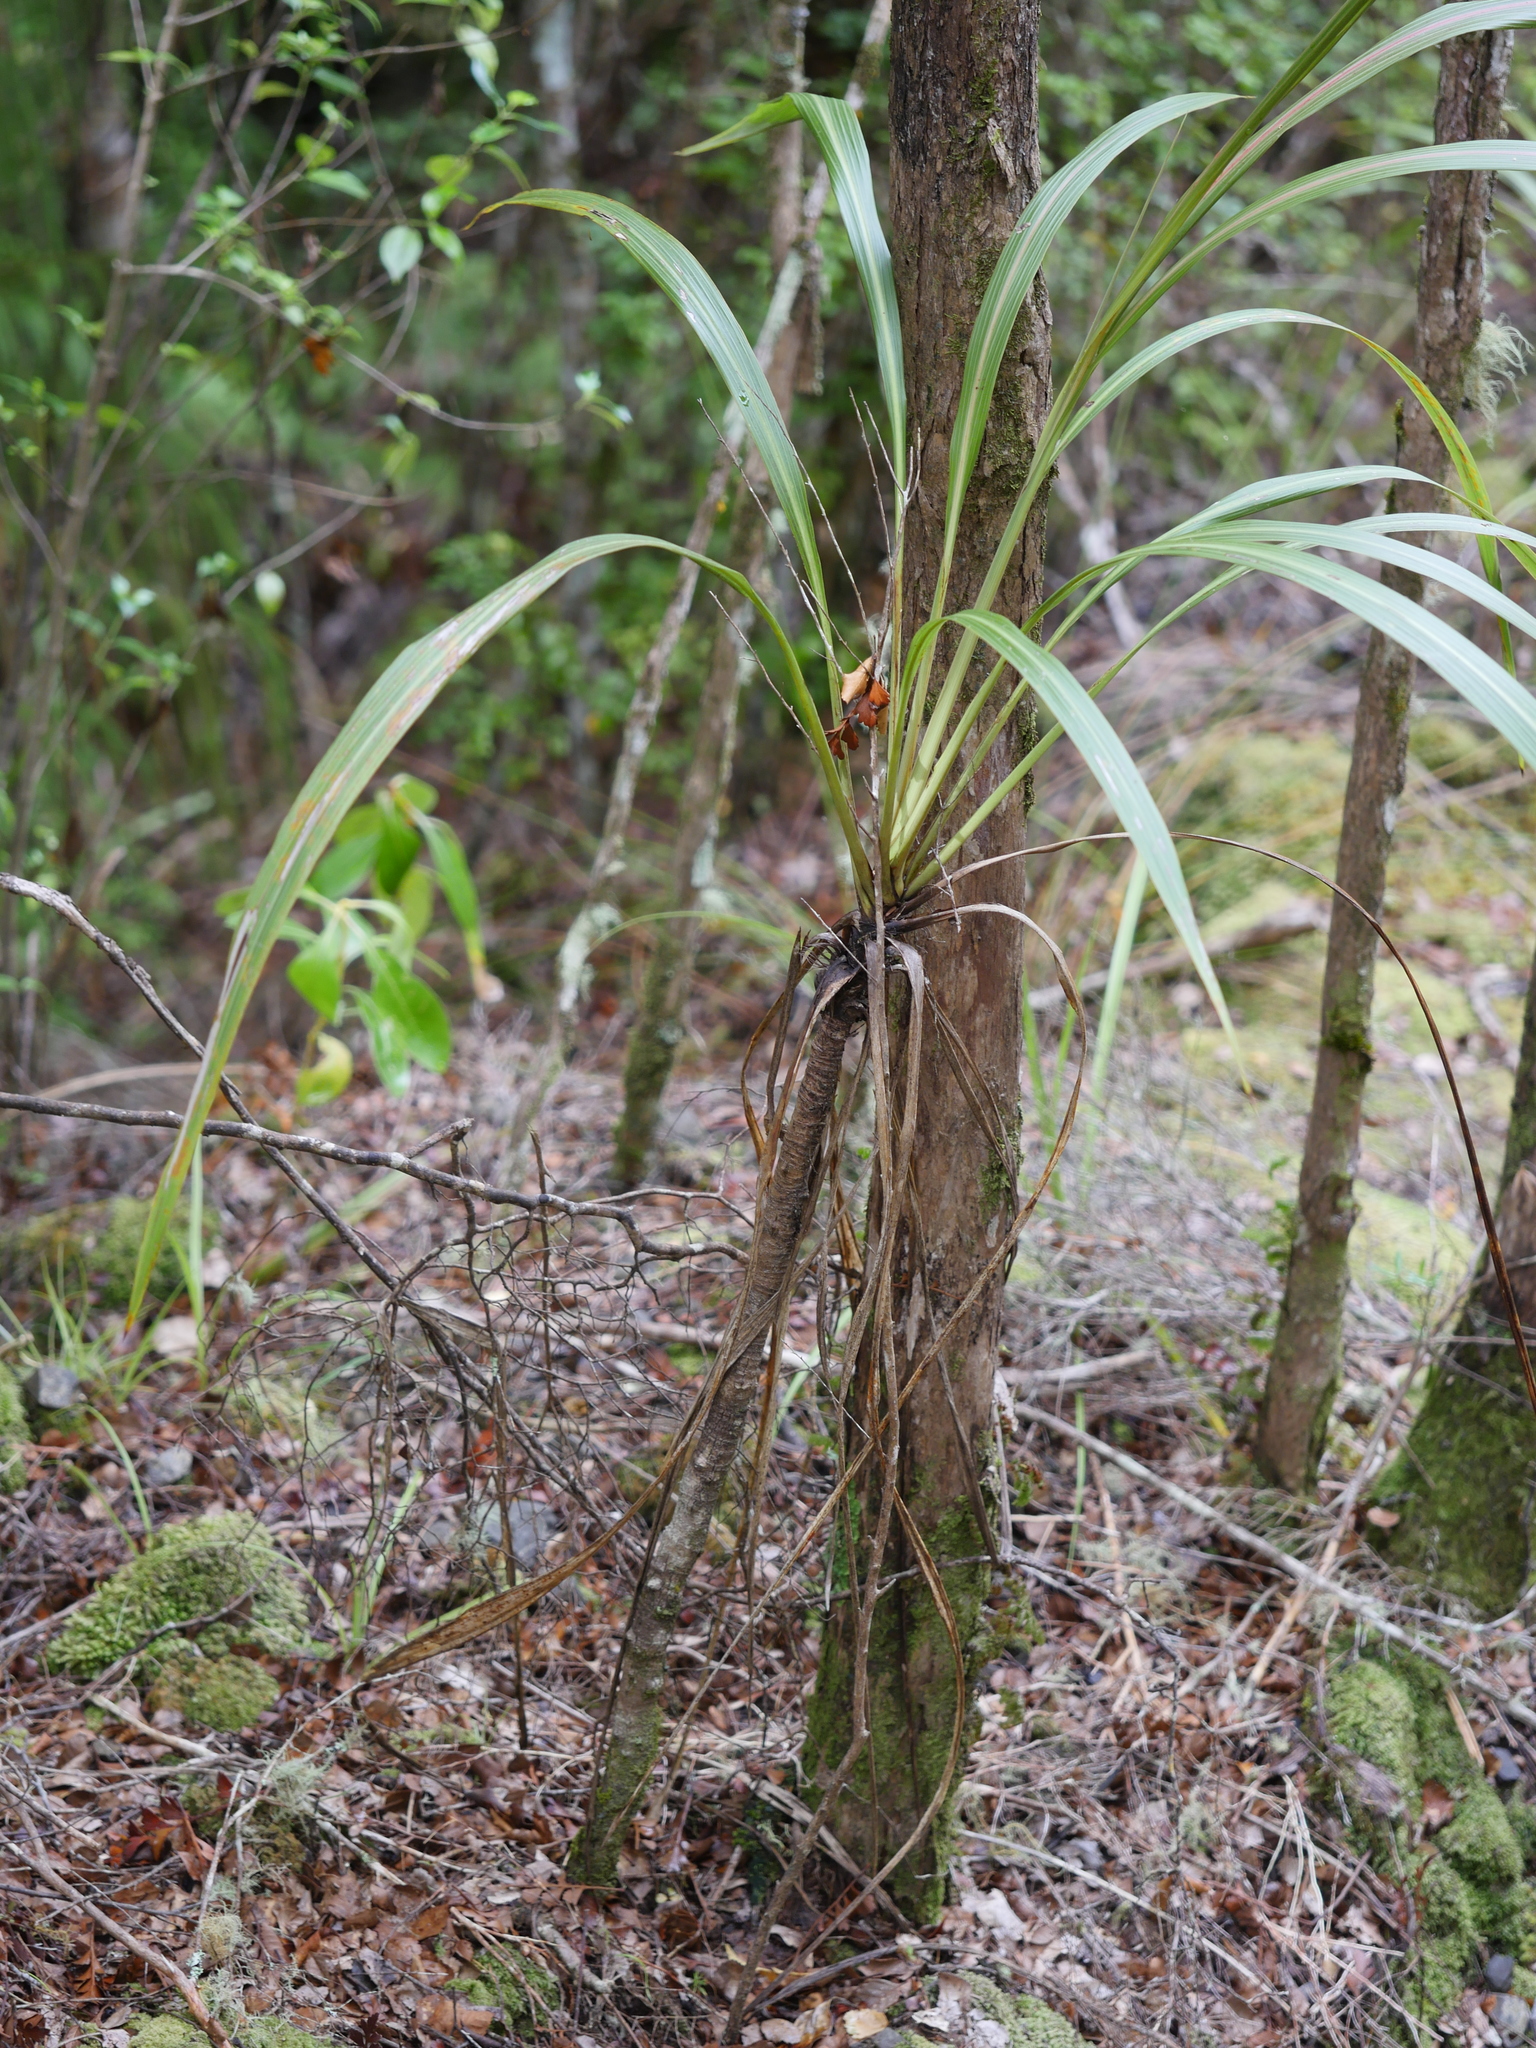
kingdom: Plantae
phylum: Tracheophyta
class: Liliopsida
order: Asparagales
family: Asparagaceae
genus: Cordyline
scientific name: Cordyline banksii
